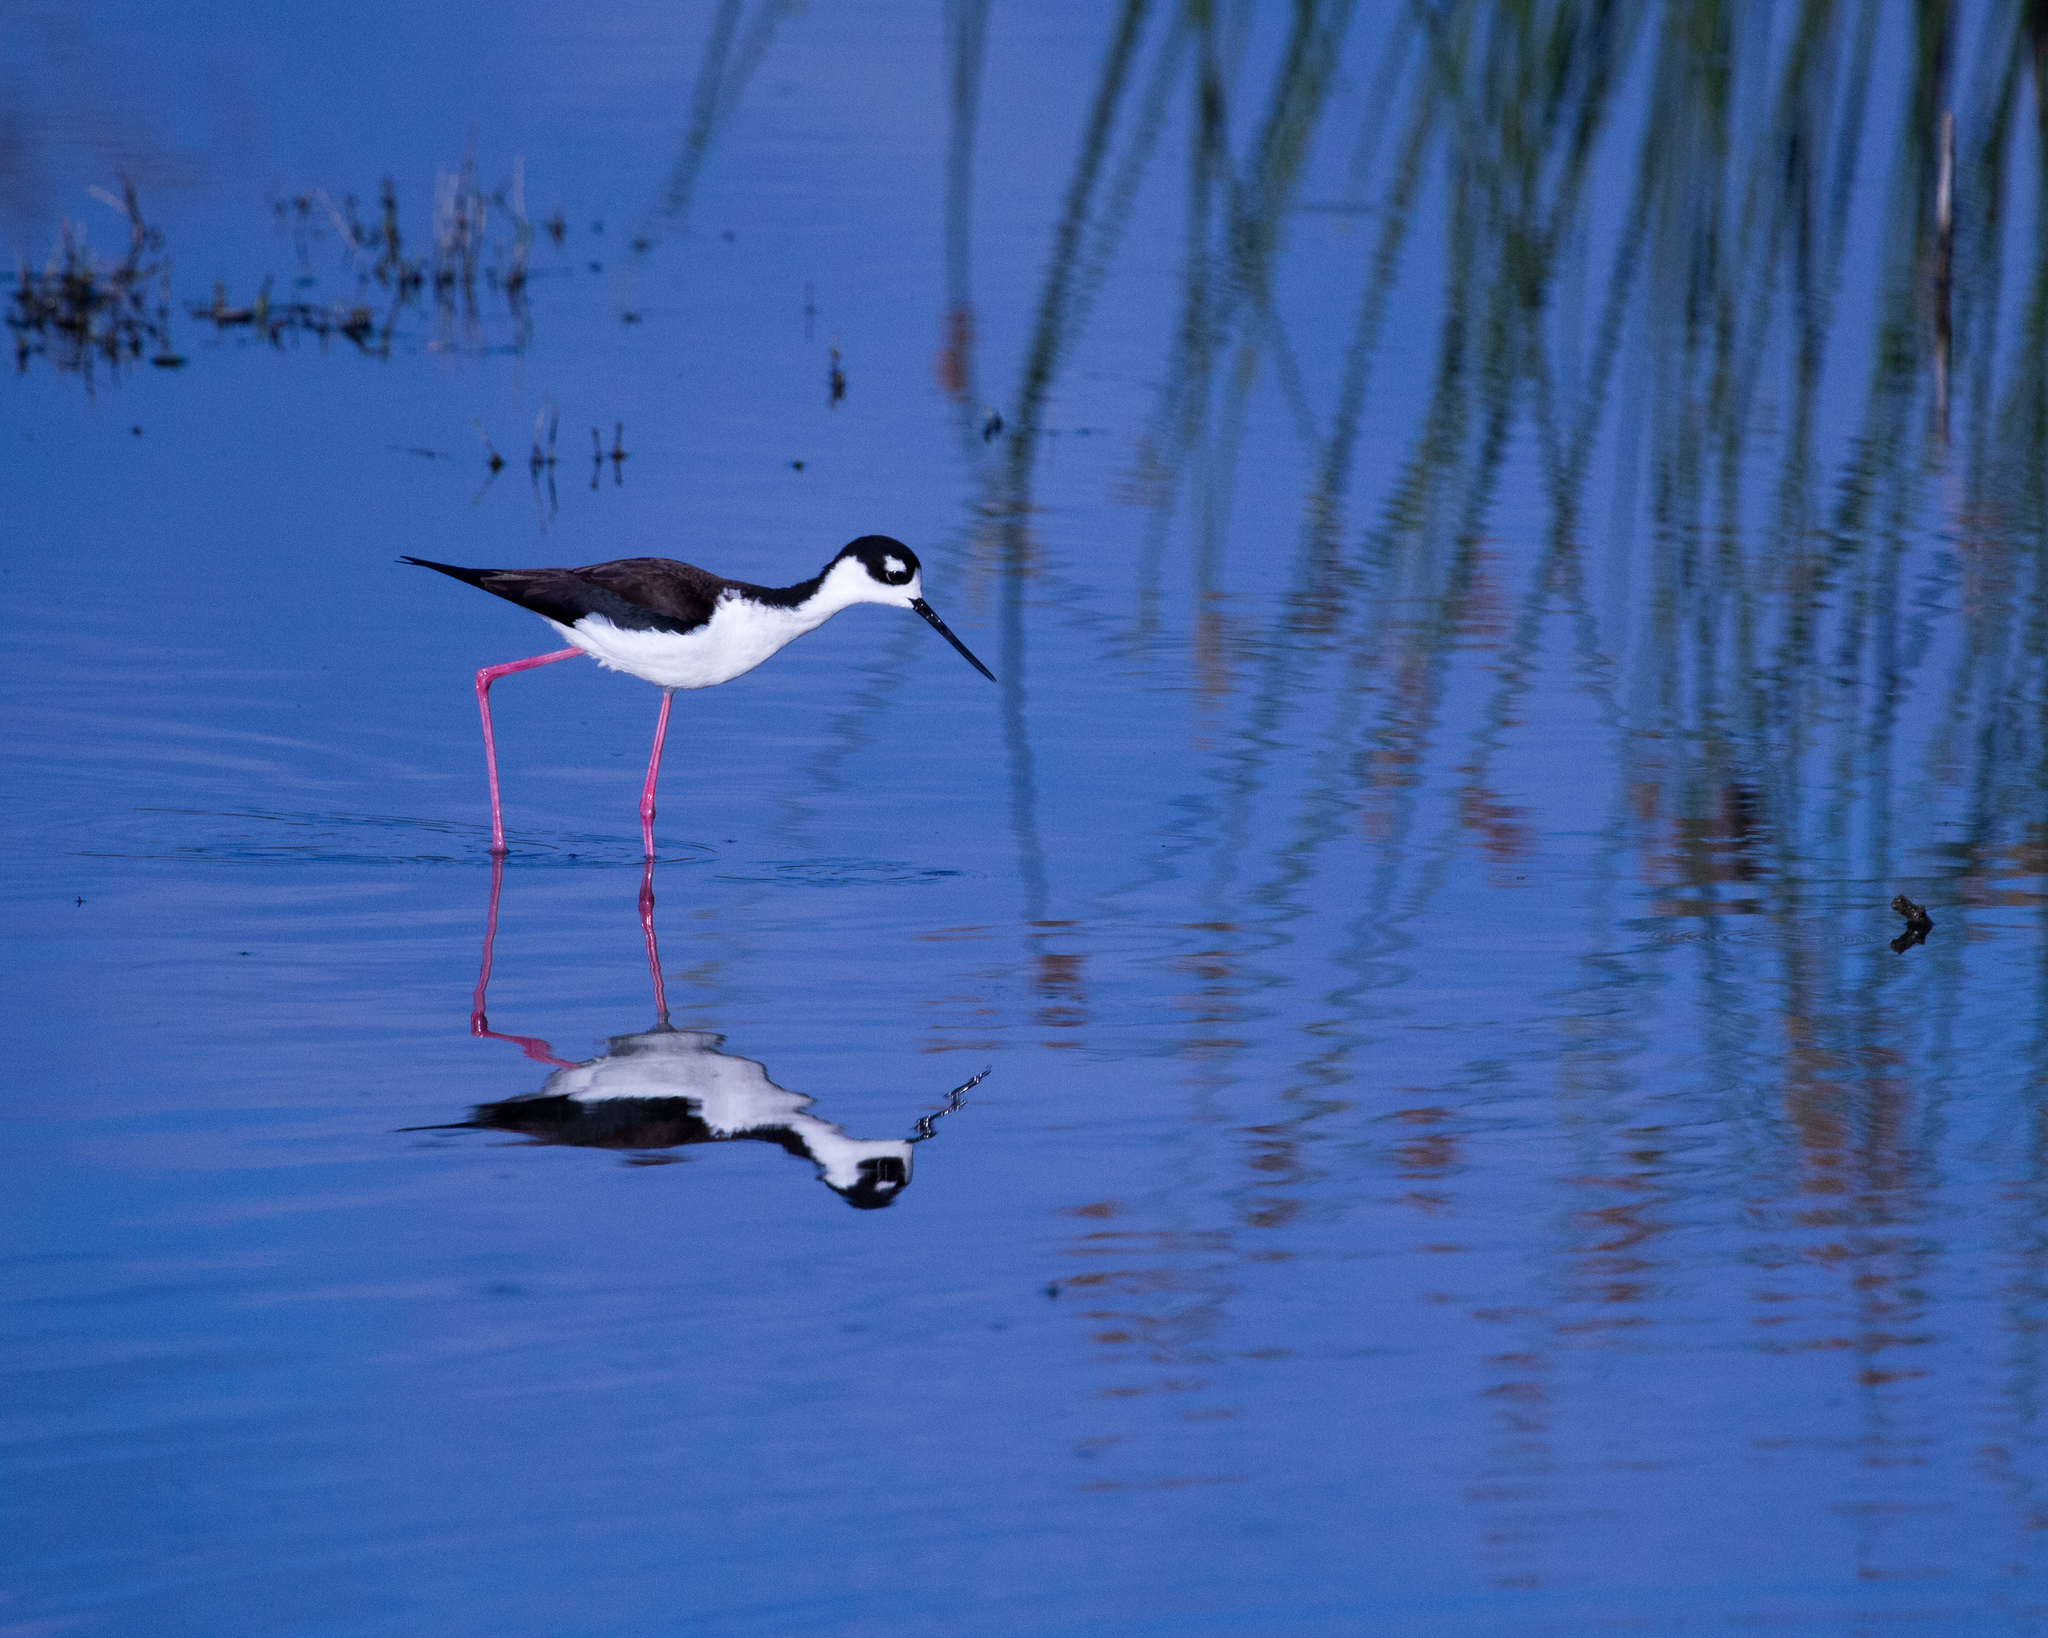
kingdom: Animalia
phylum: Chordata
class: Aves
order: Charadriiformes
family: Recurvirostridae
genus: Himantopus
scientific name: Himantopus mexicanus
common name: Black-necked stilt
